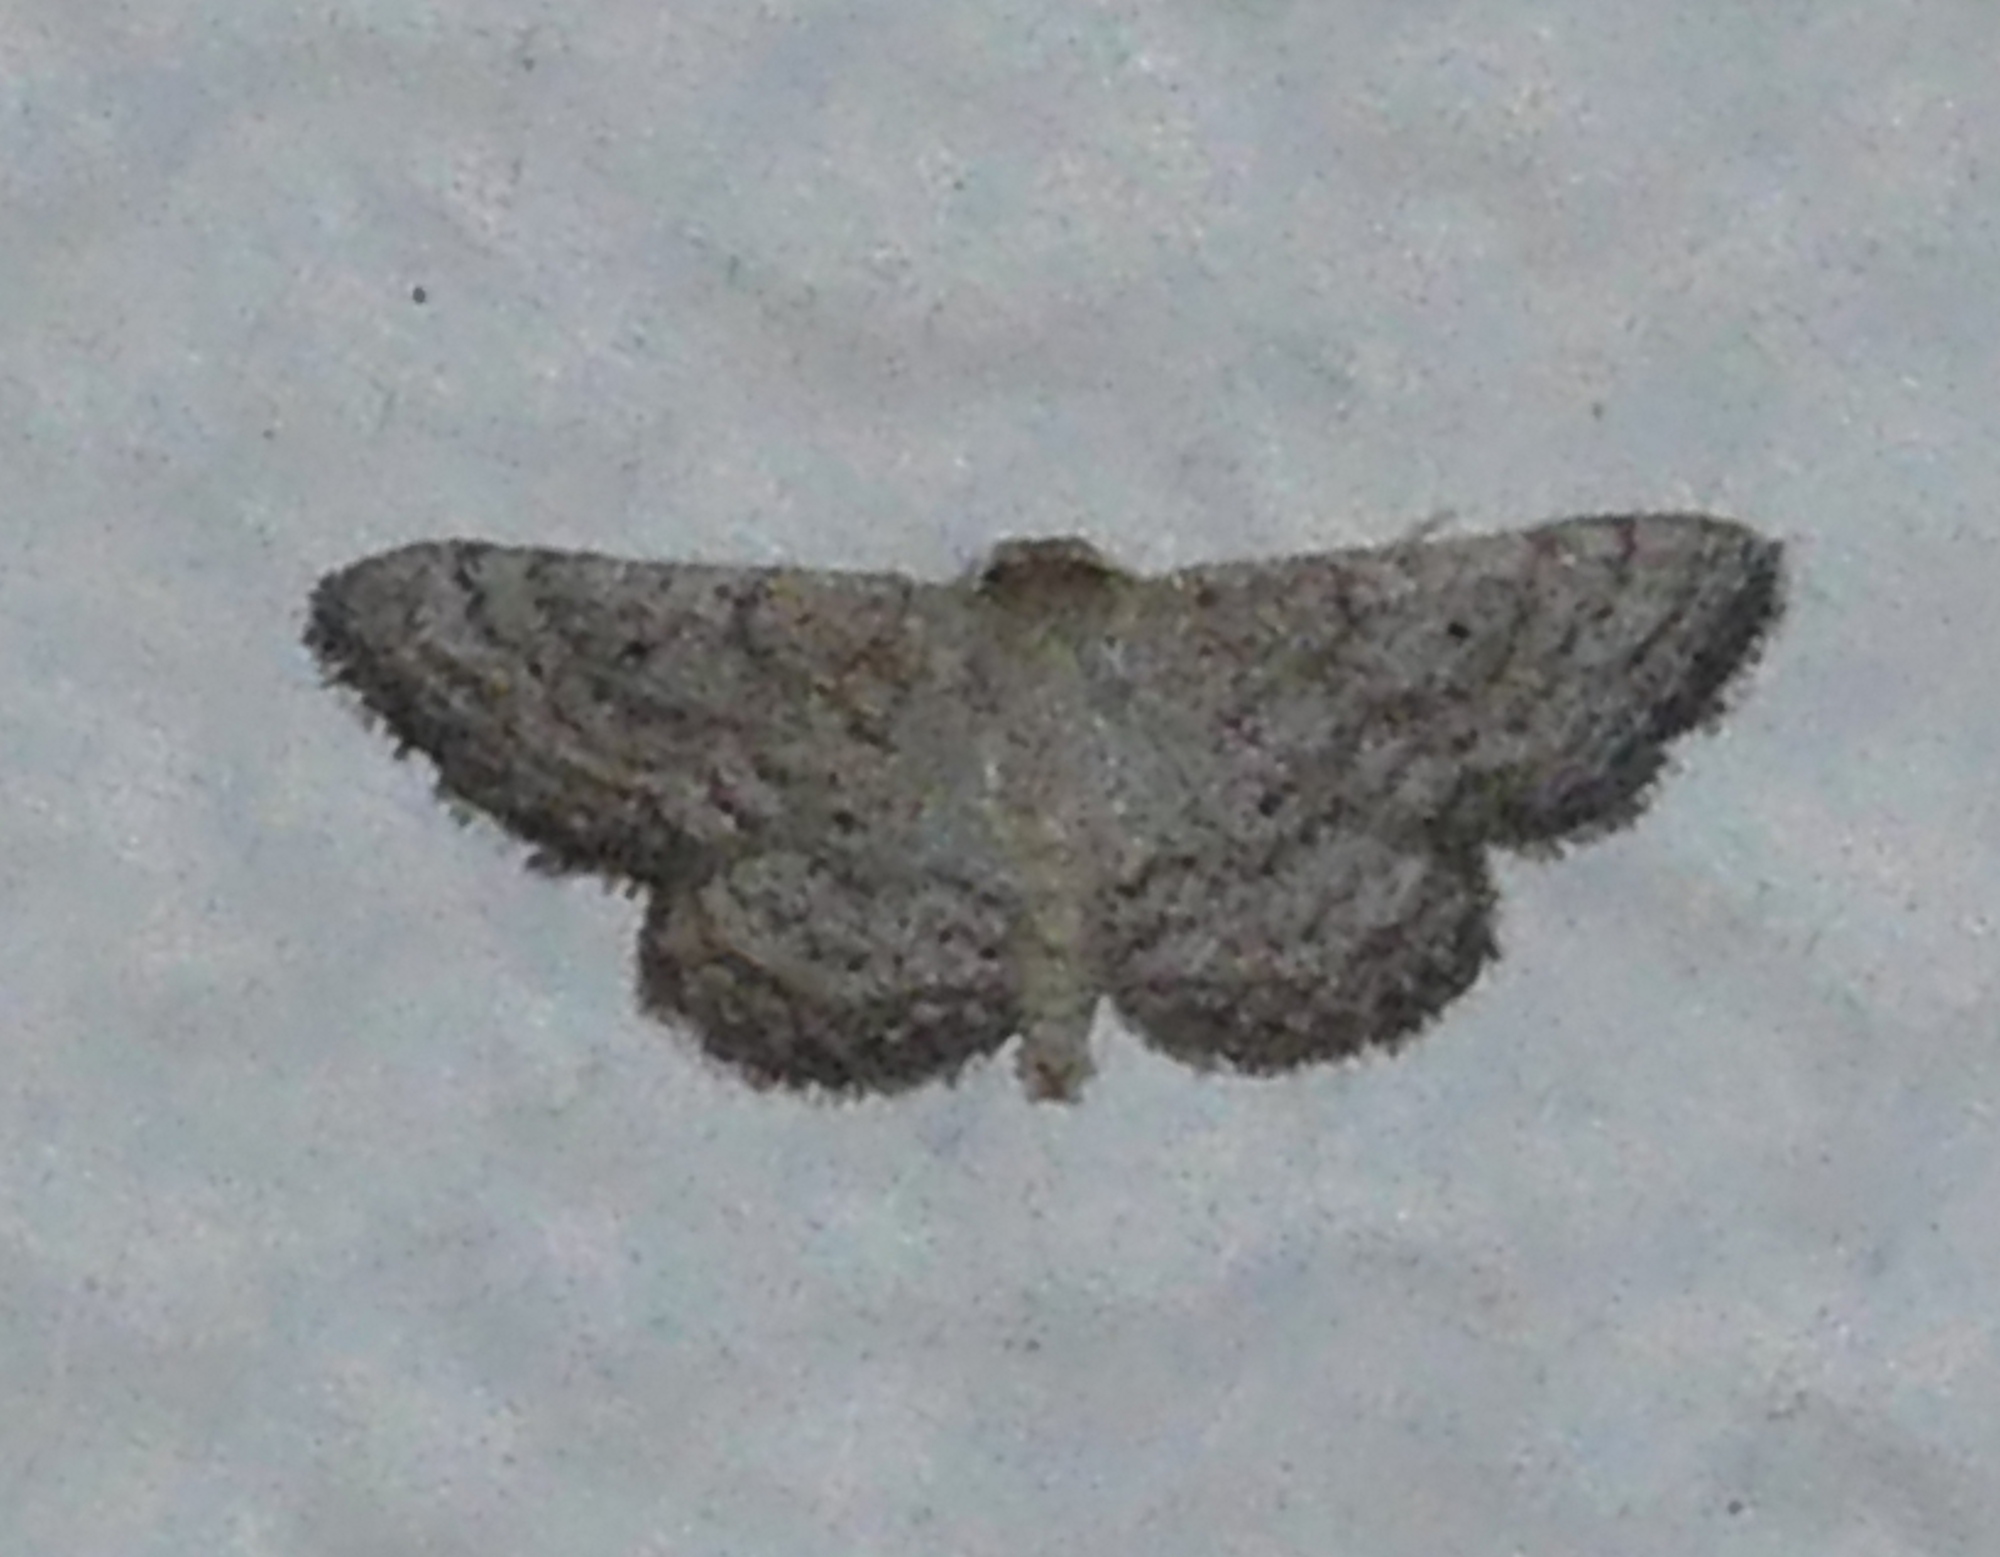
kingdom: Animalia
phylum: Arthropoda
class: Insecta
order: Lepidoptera
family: Geometridae
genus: Lobocleta
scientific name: Lobocleta ossularia
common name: Drab brown wave
